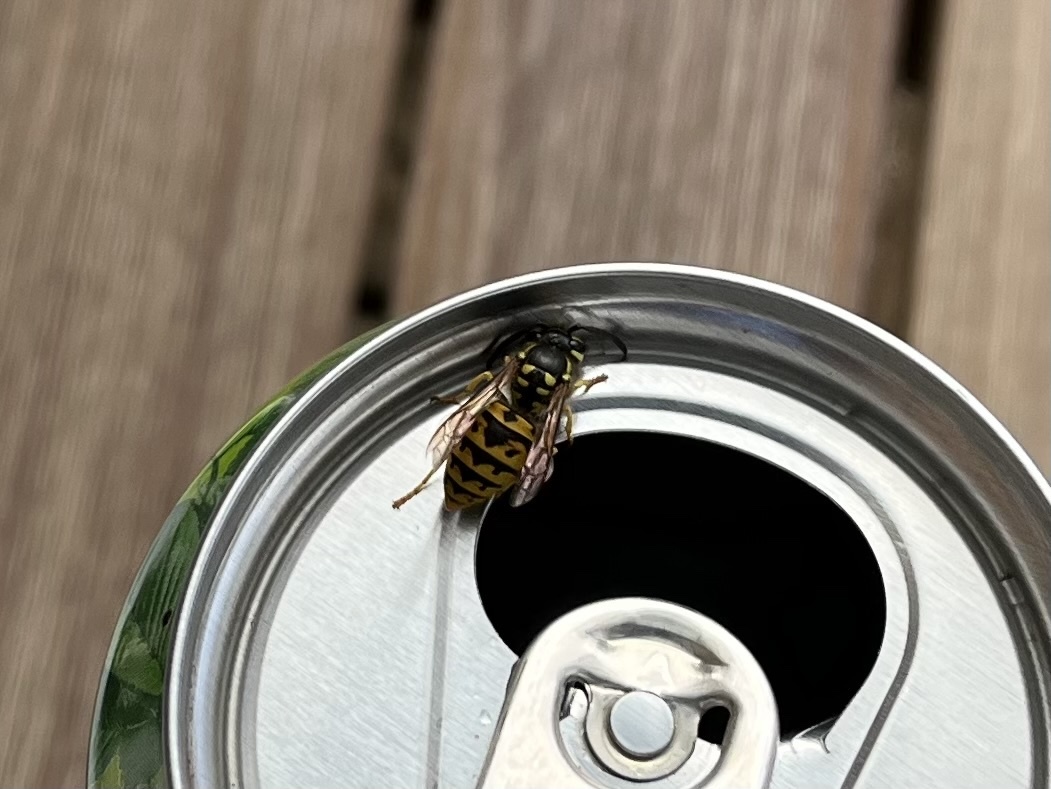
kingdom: Animalia
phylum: Arthropoda
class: Insecta
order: Hymenoptera
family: Vespidae
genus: Vespula
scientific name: Vespula germanica
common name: German wasp
